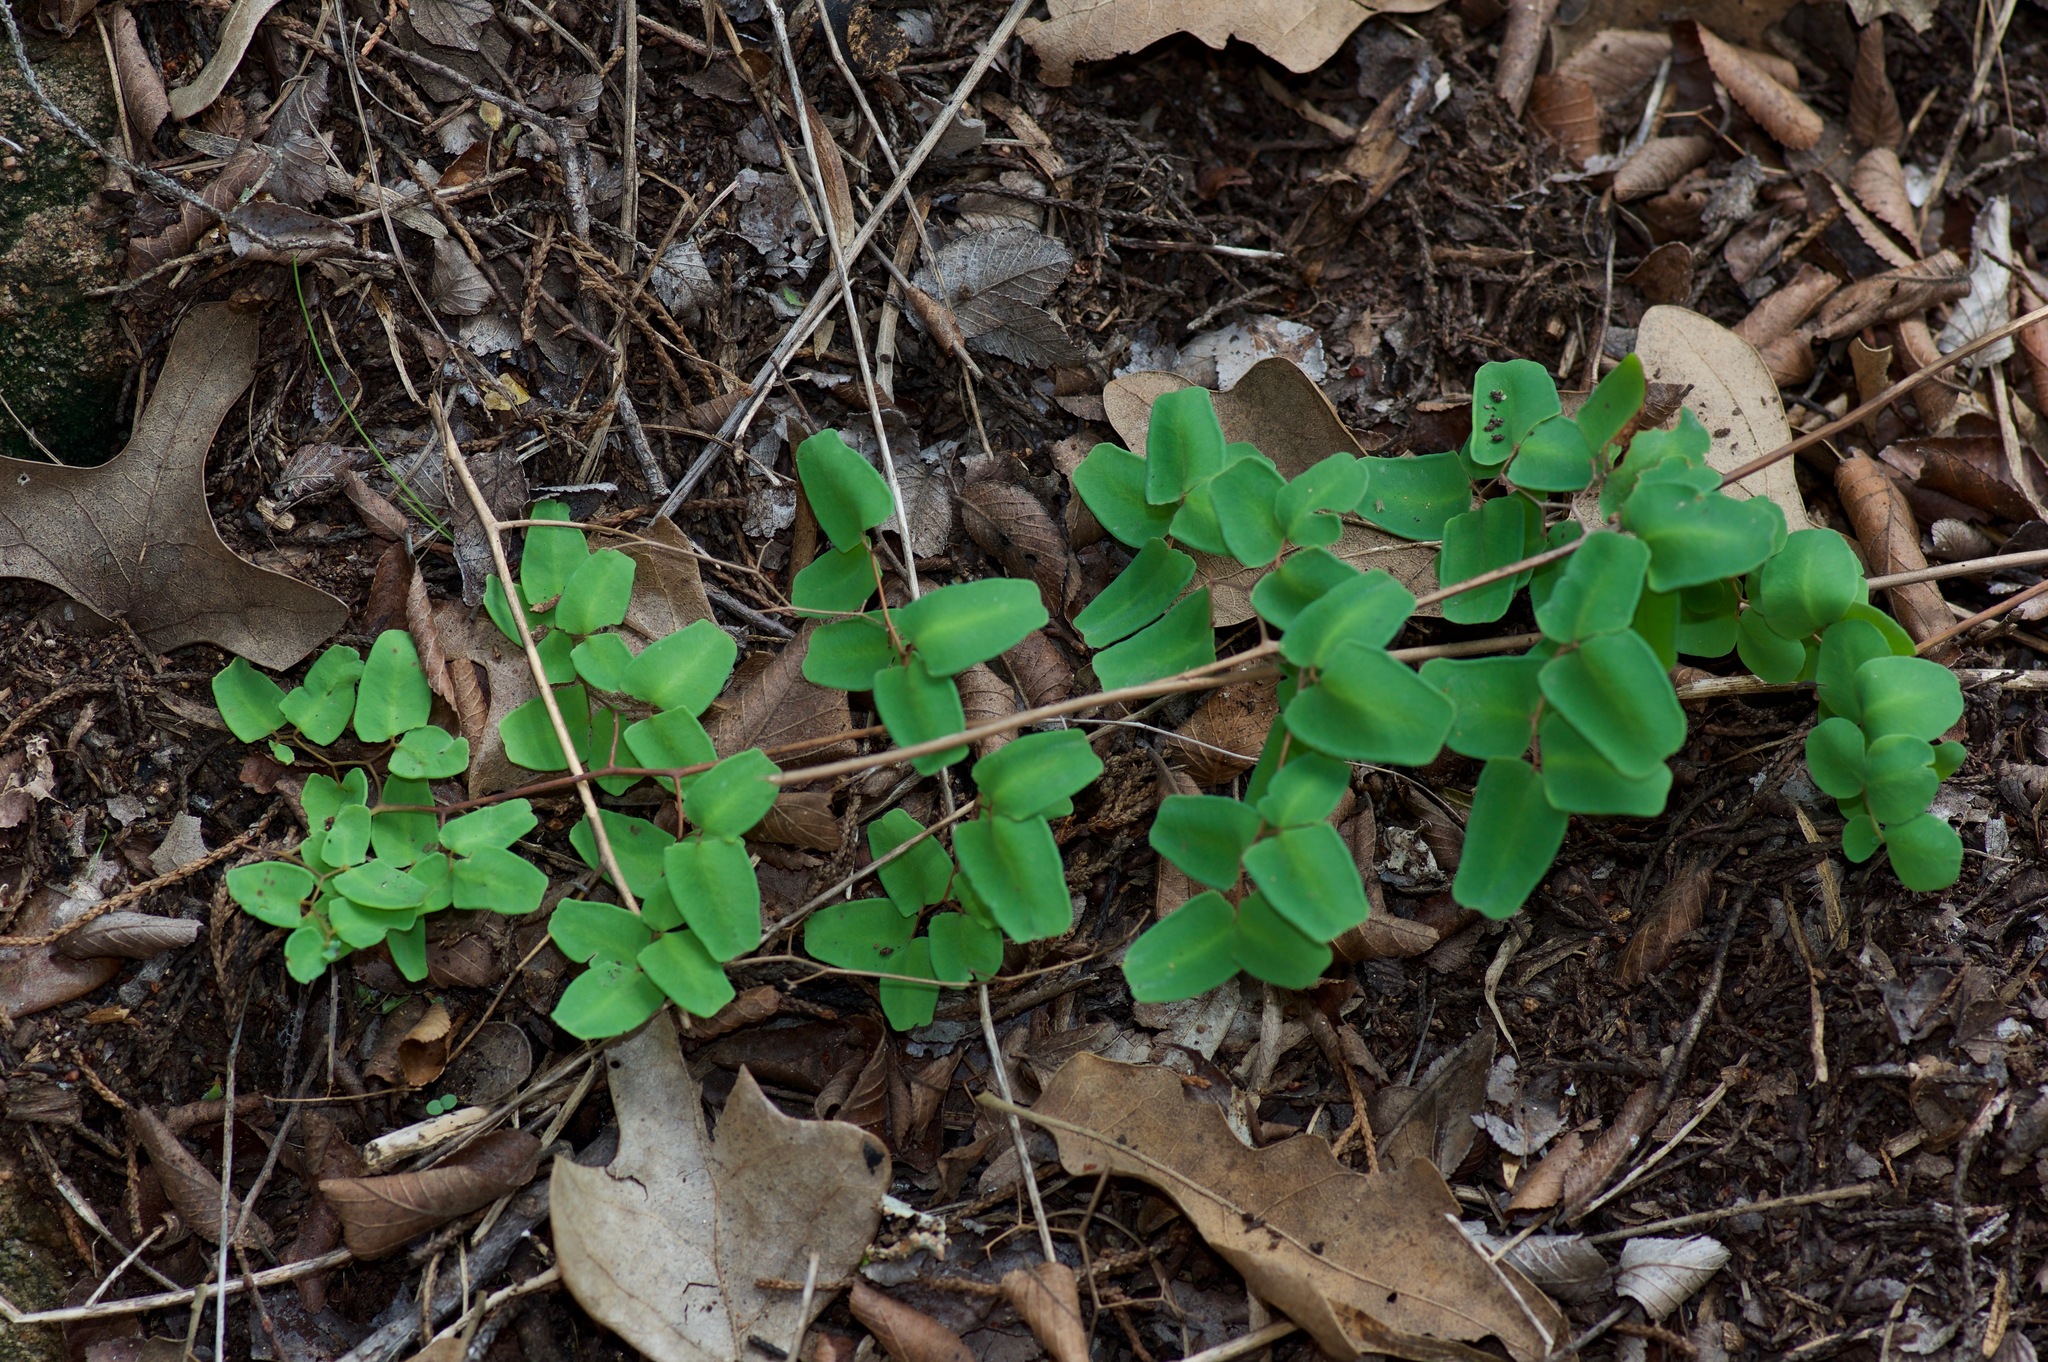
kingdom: Plantae
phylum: Tracheophyta
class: Polypodiopsida
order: Polypodiales
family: Pteridaceae
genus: Pellaea
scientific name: Pellaea ovata
